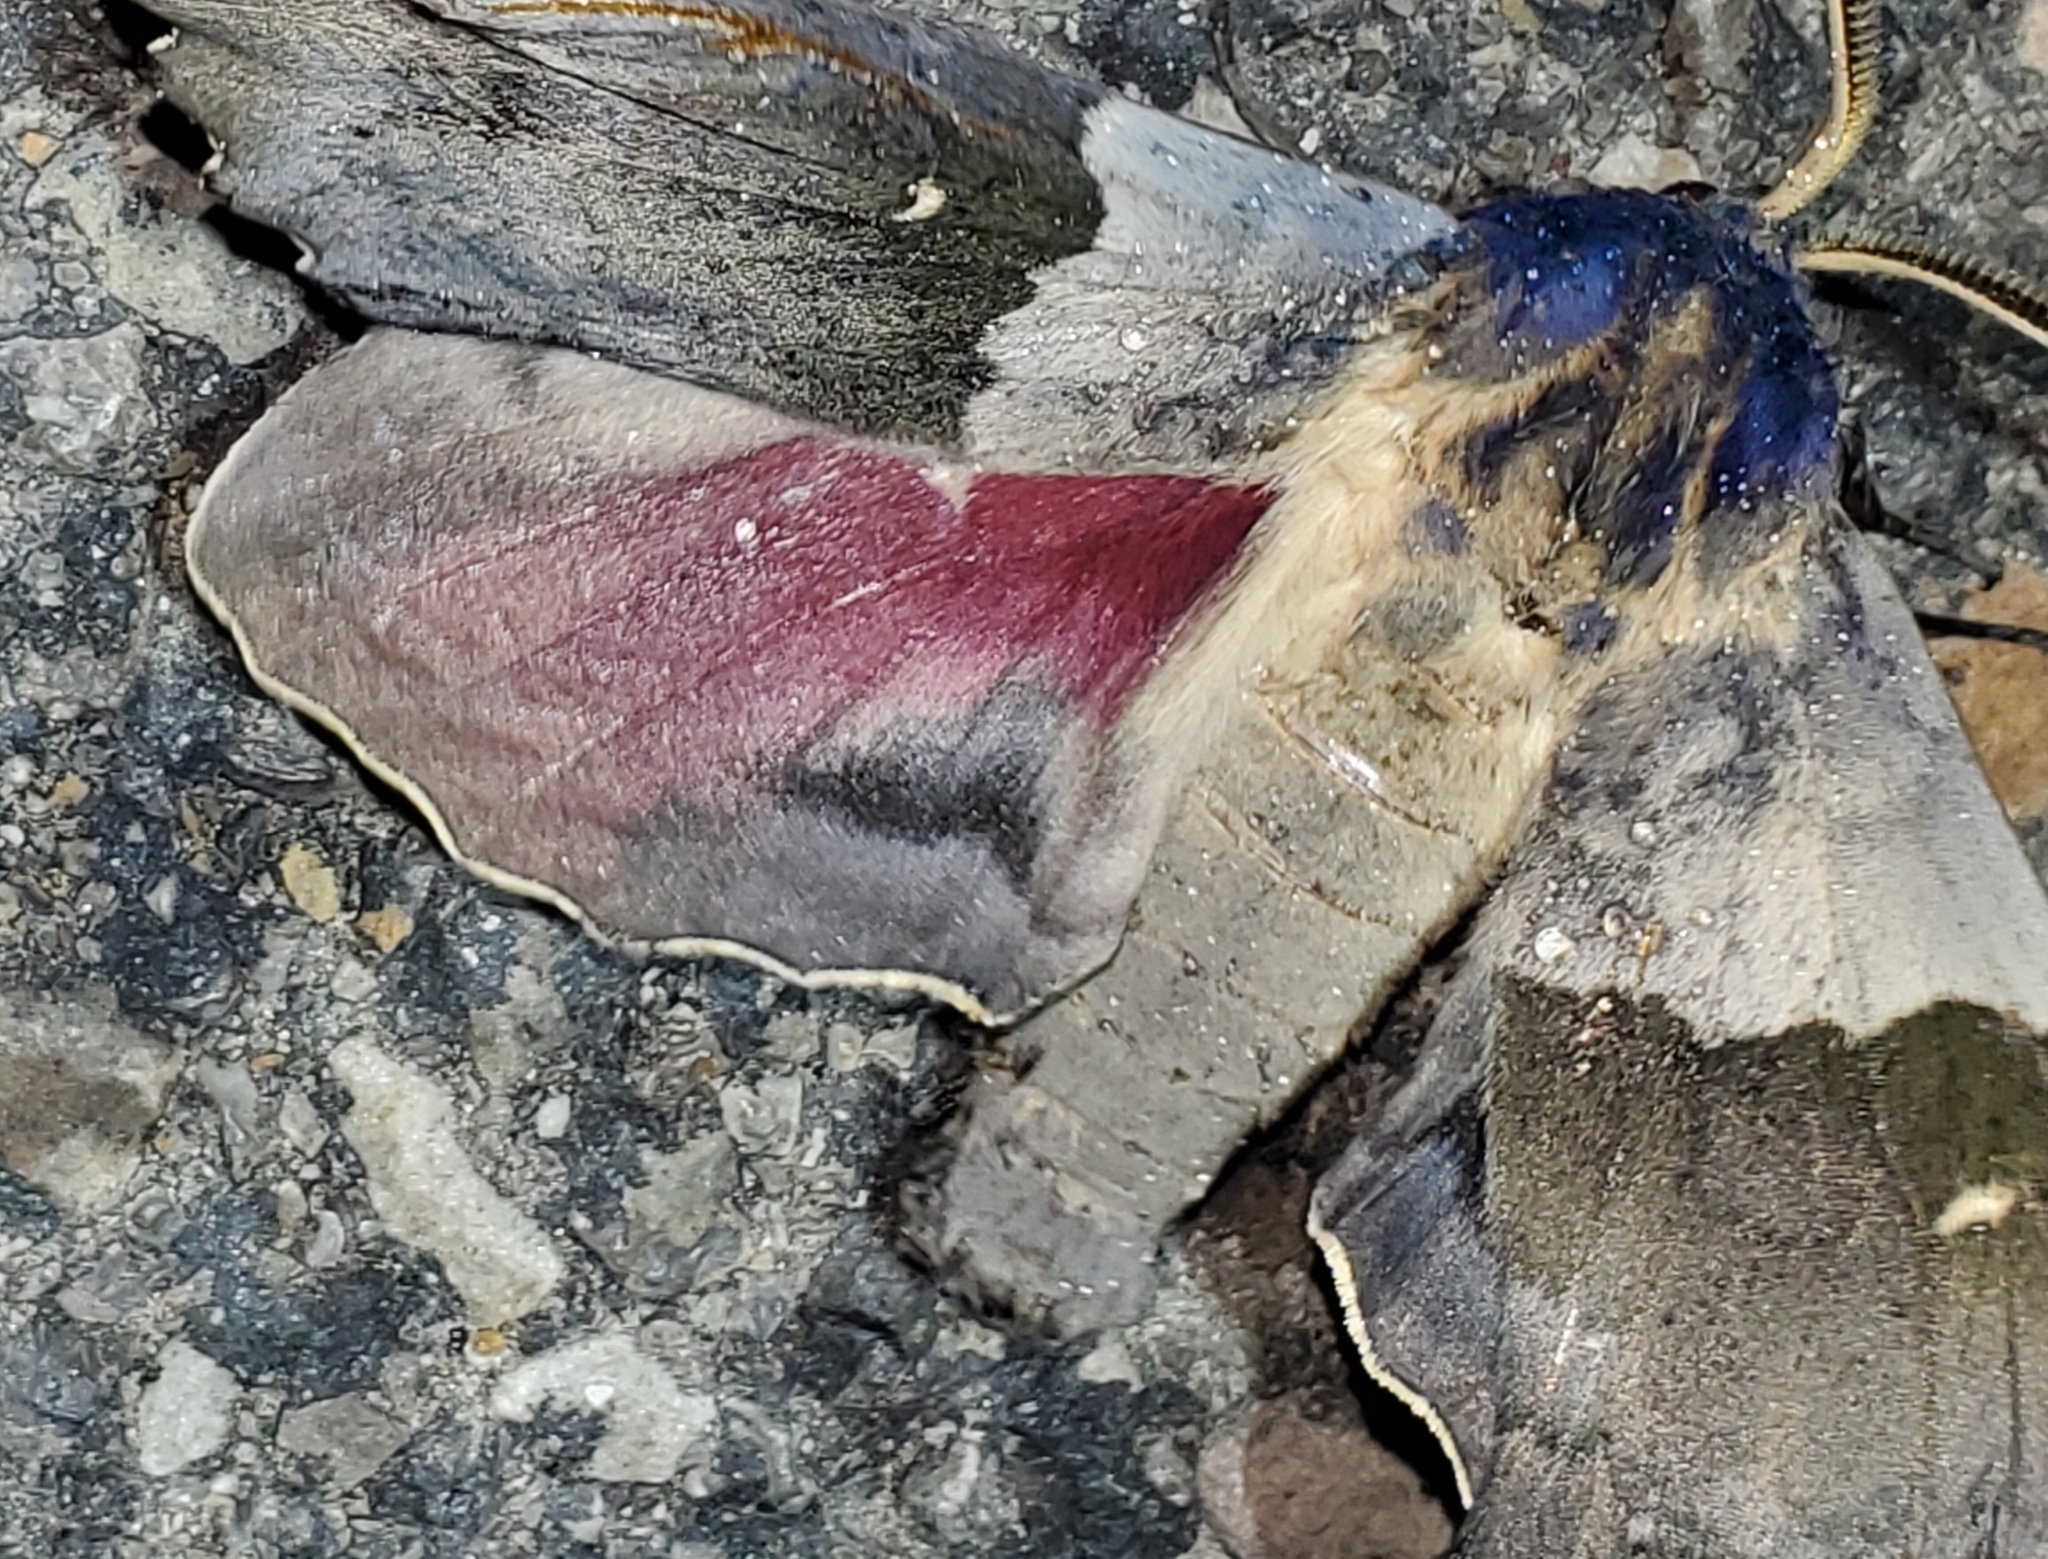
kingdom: Animalia
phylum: Arthropoda
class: Insecta
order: Lepidoptera
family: Sphingidae
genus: Pachysphinx
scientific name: Pachysphinx modesta
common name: Big poplar sphinx
